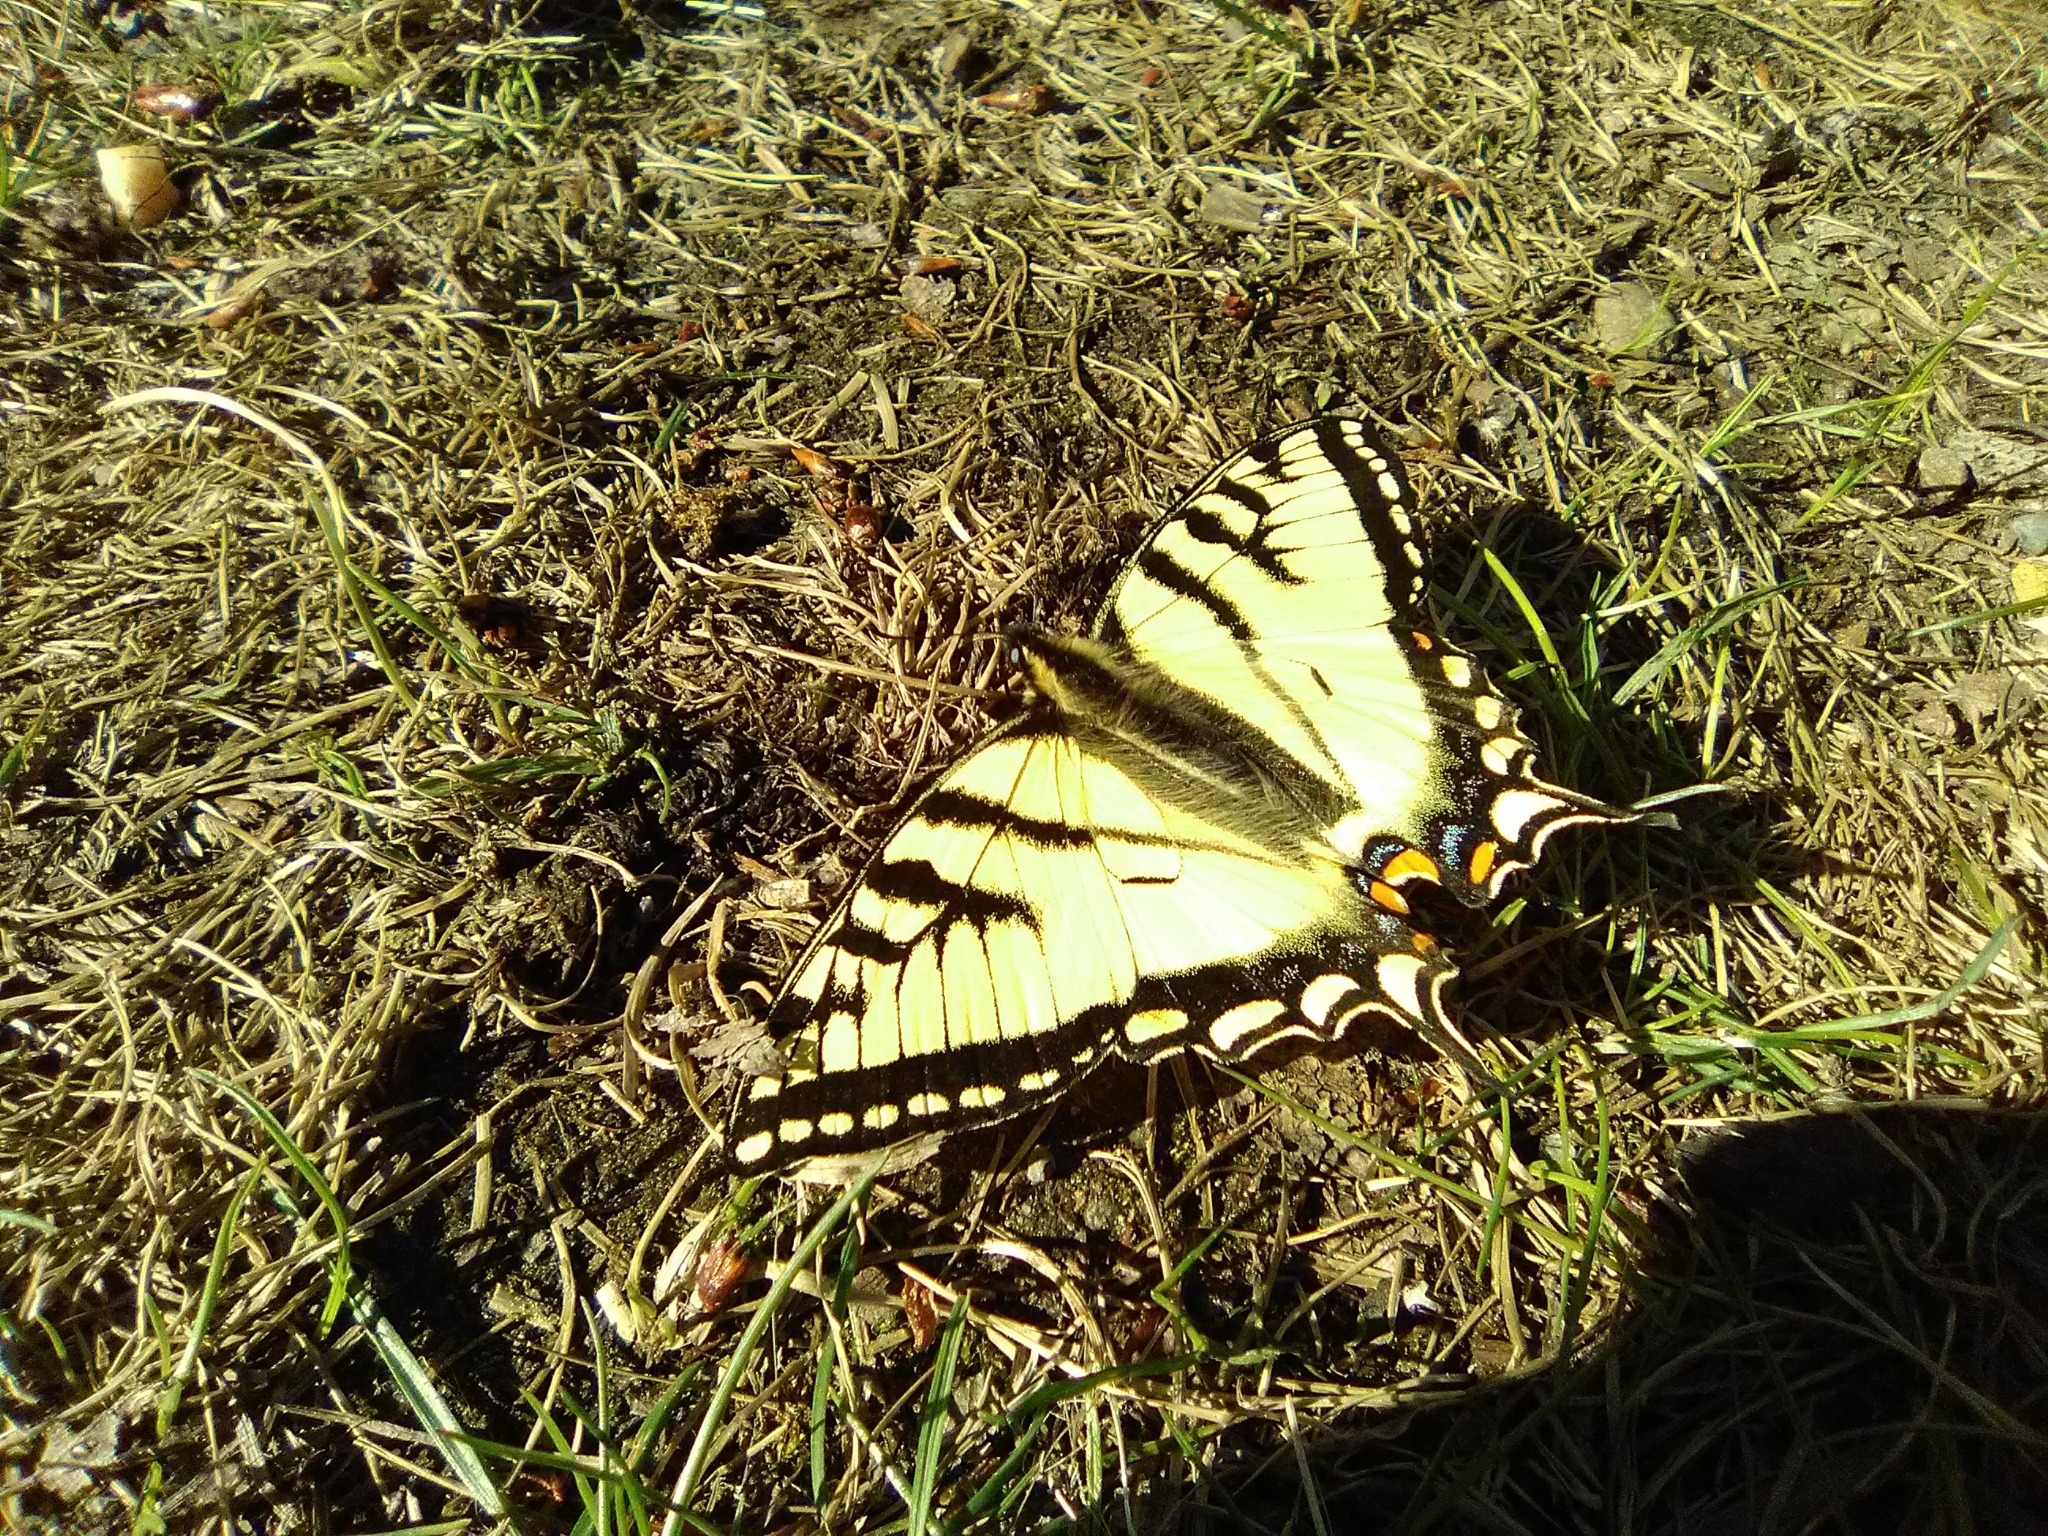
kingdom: Animalia
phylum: Arthropoda
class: Insecta
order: Lepidoptera
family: Papilionidae
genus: Papilio
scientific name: Papilio canadensis
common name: Canadian tiger swallowtail
